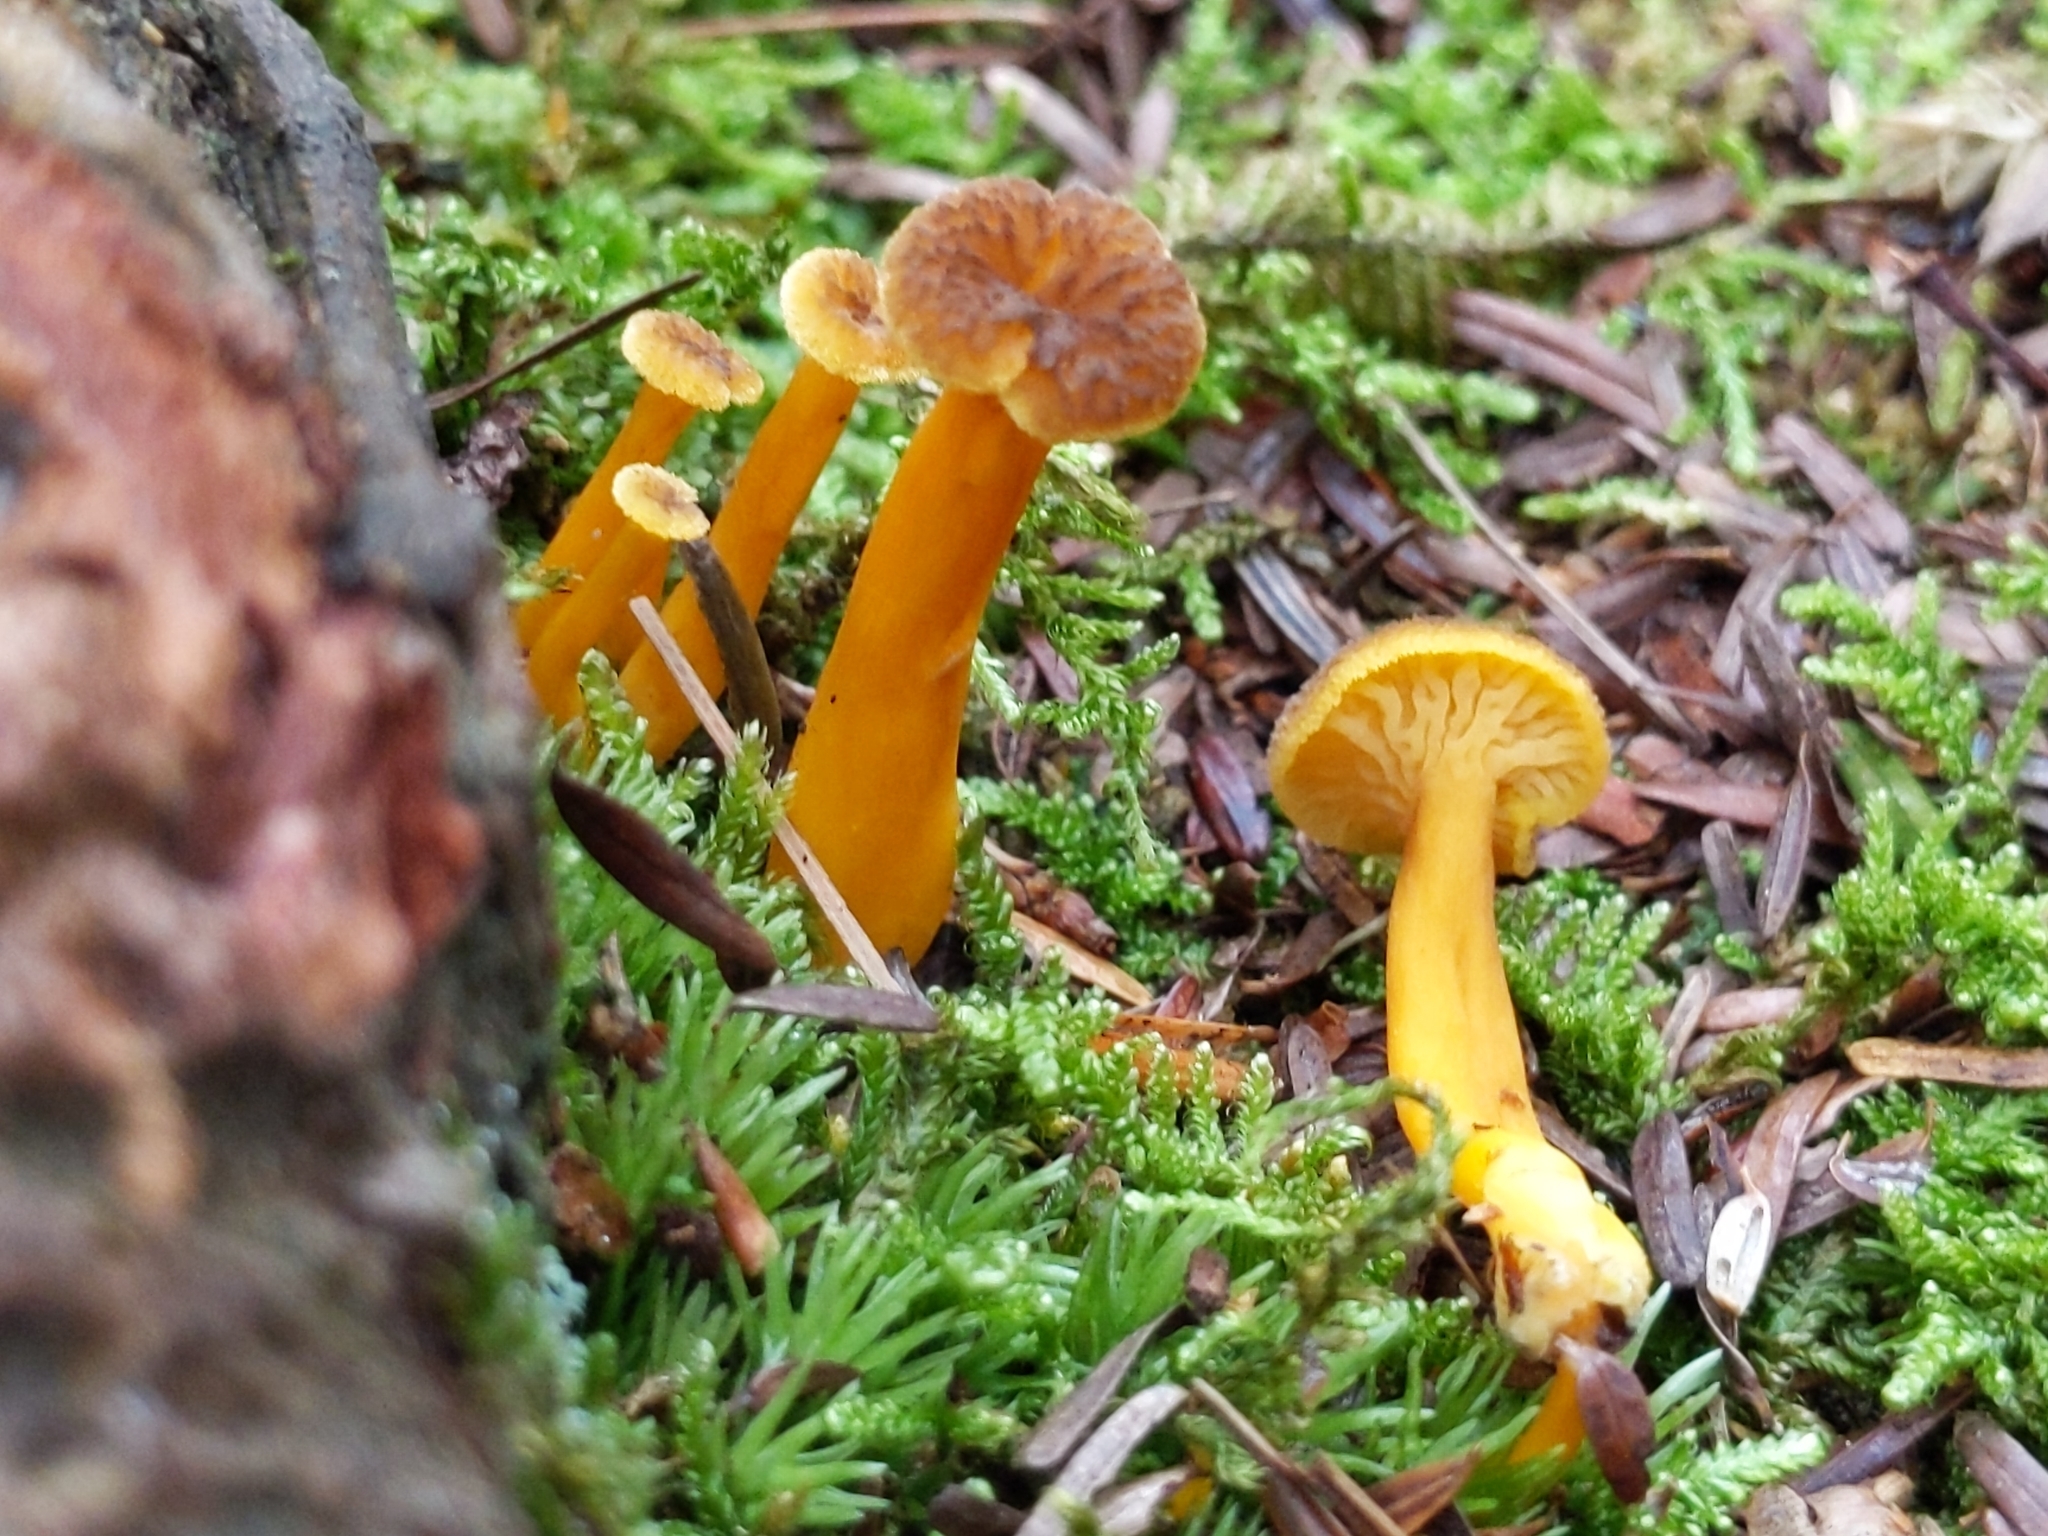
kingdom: Fungi
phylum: Basidiomycota
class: Agaricomycetes
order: Cantharellales
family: Hydnaceae
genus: Craterellus
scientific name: Craterellus tubaeformis
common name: Yellowfoot
